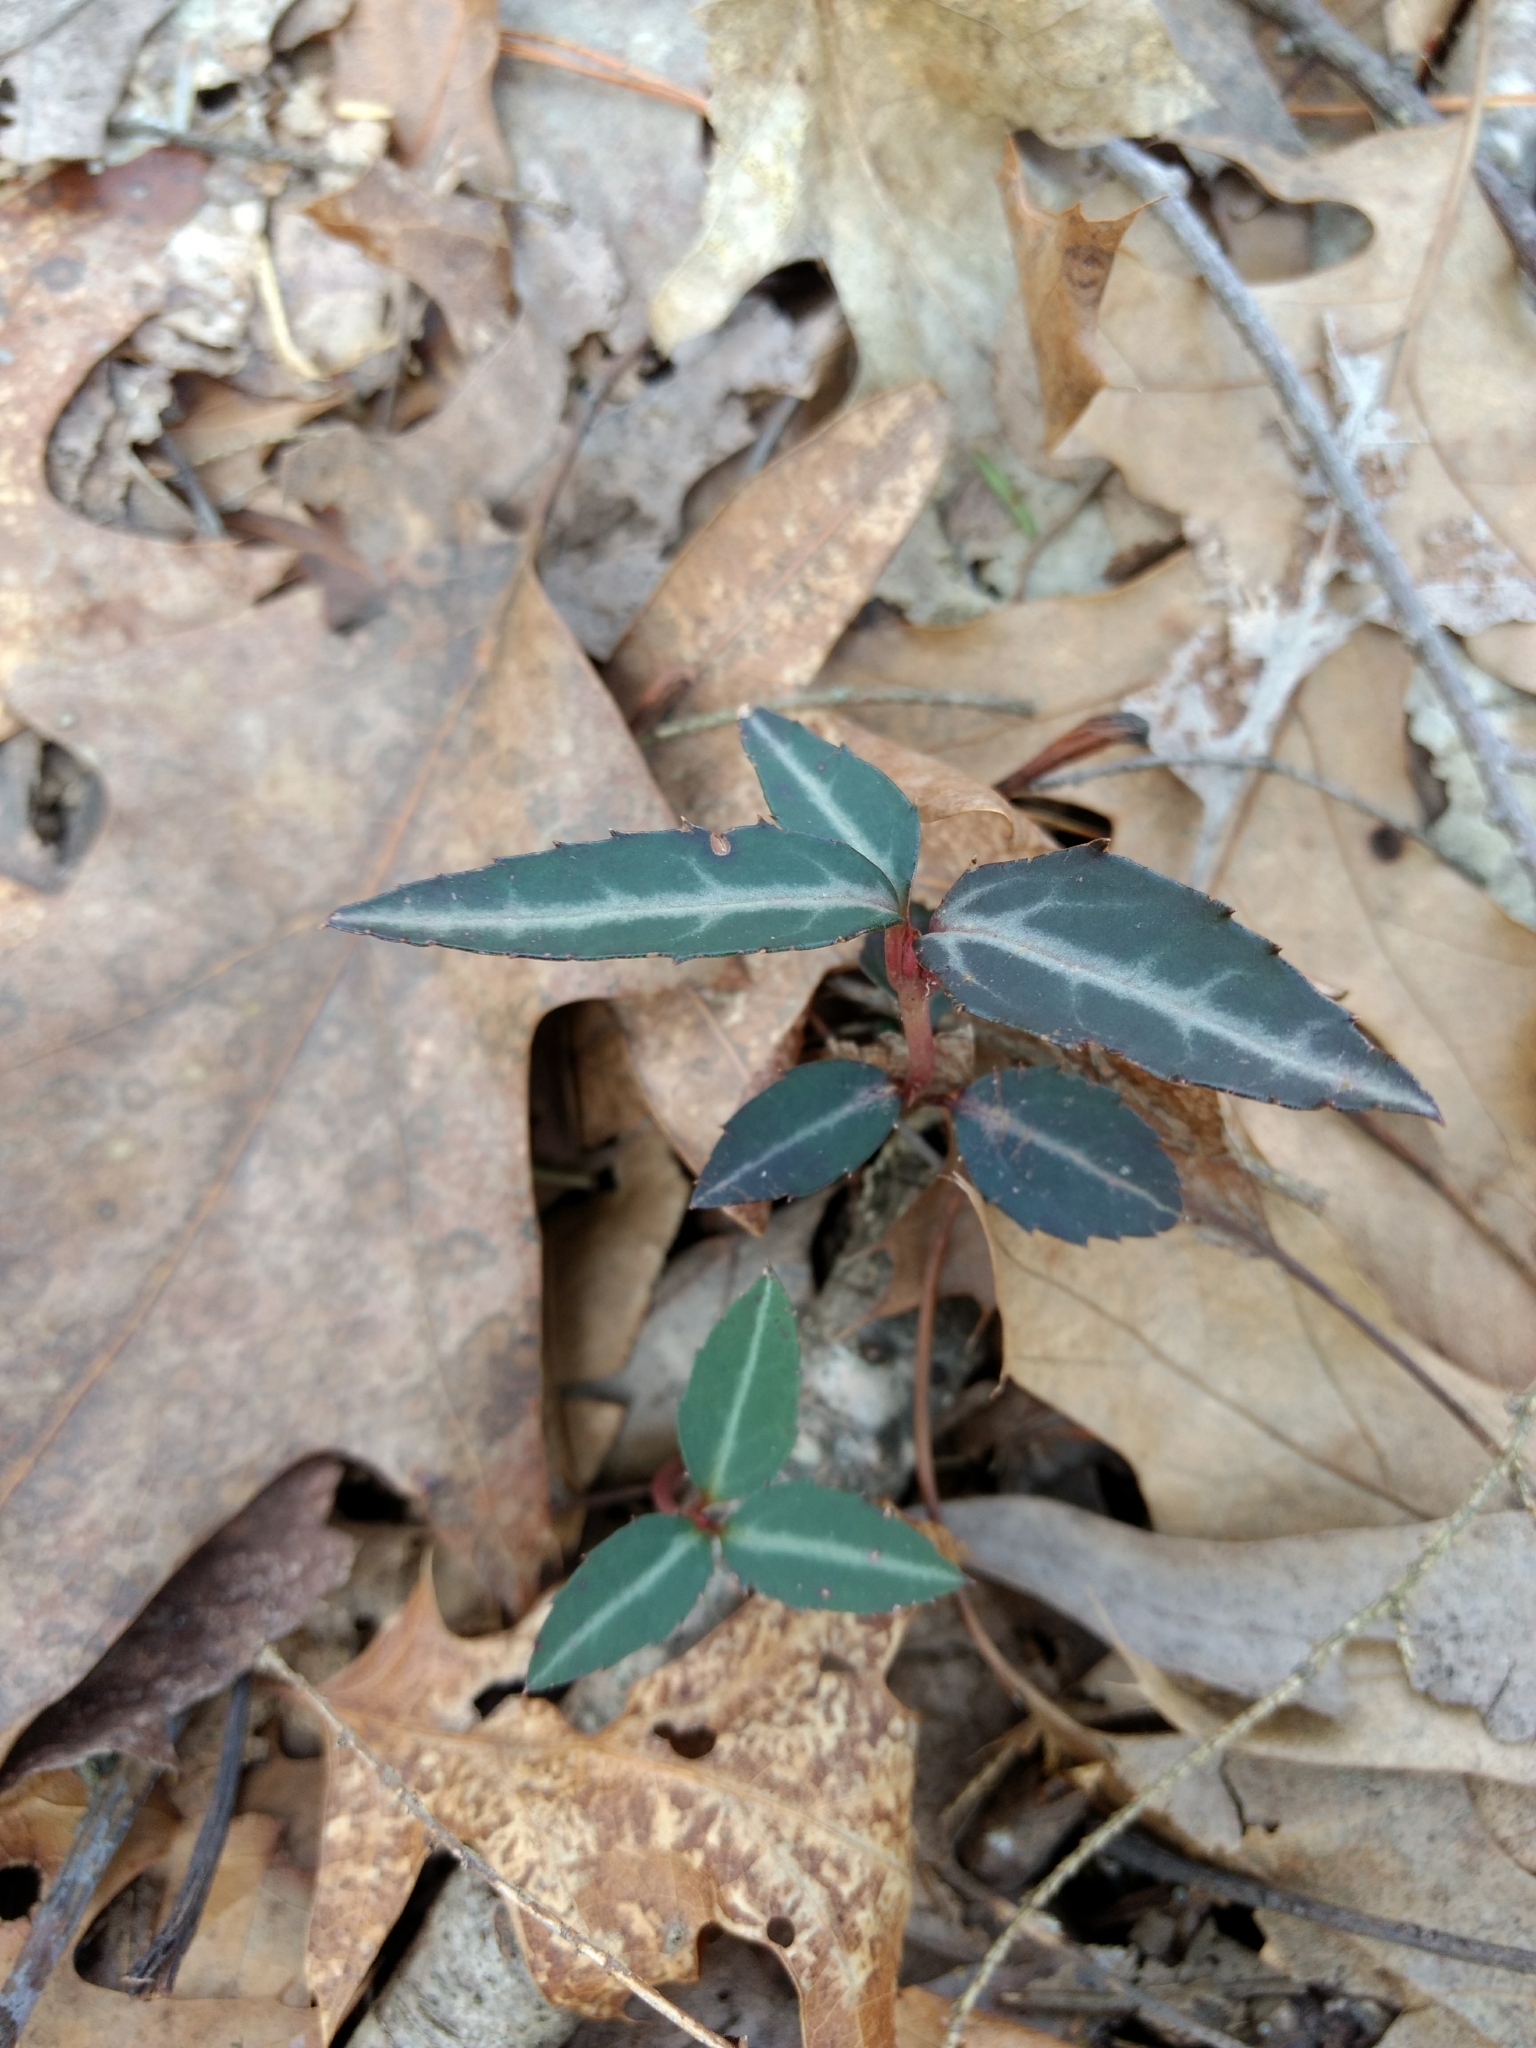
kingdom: Plantae
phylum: Tracheophyta
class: Magnoliopsida
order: Ericales
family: Ericaceae
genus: Chimaphila
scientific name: Chimaphila maculata
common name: Spotted pipsissewa
